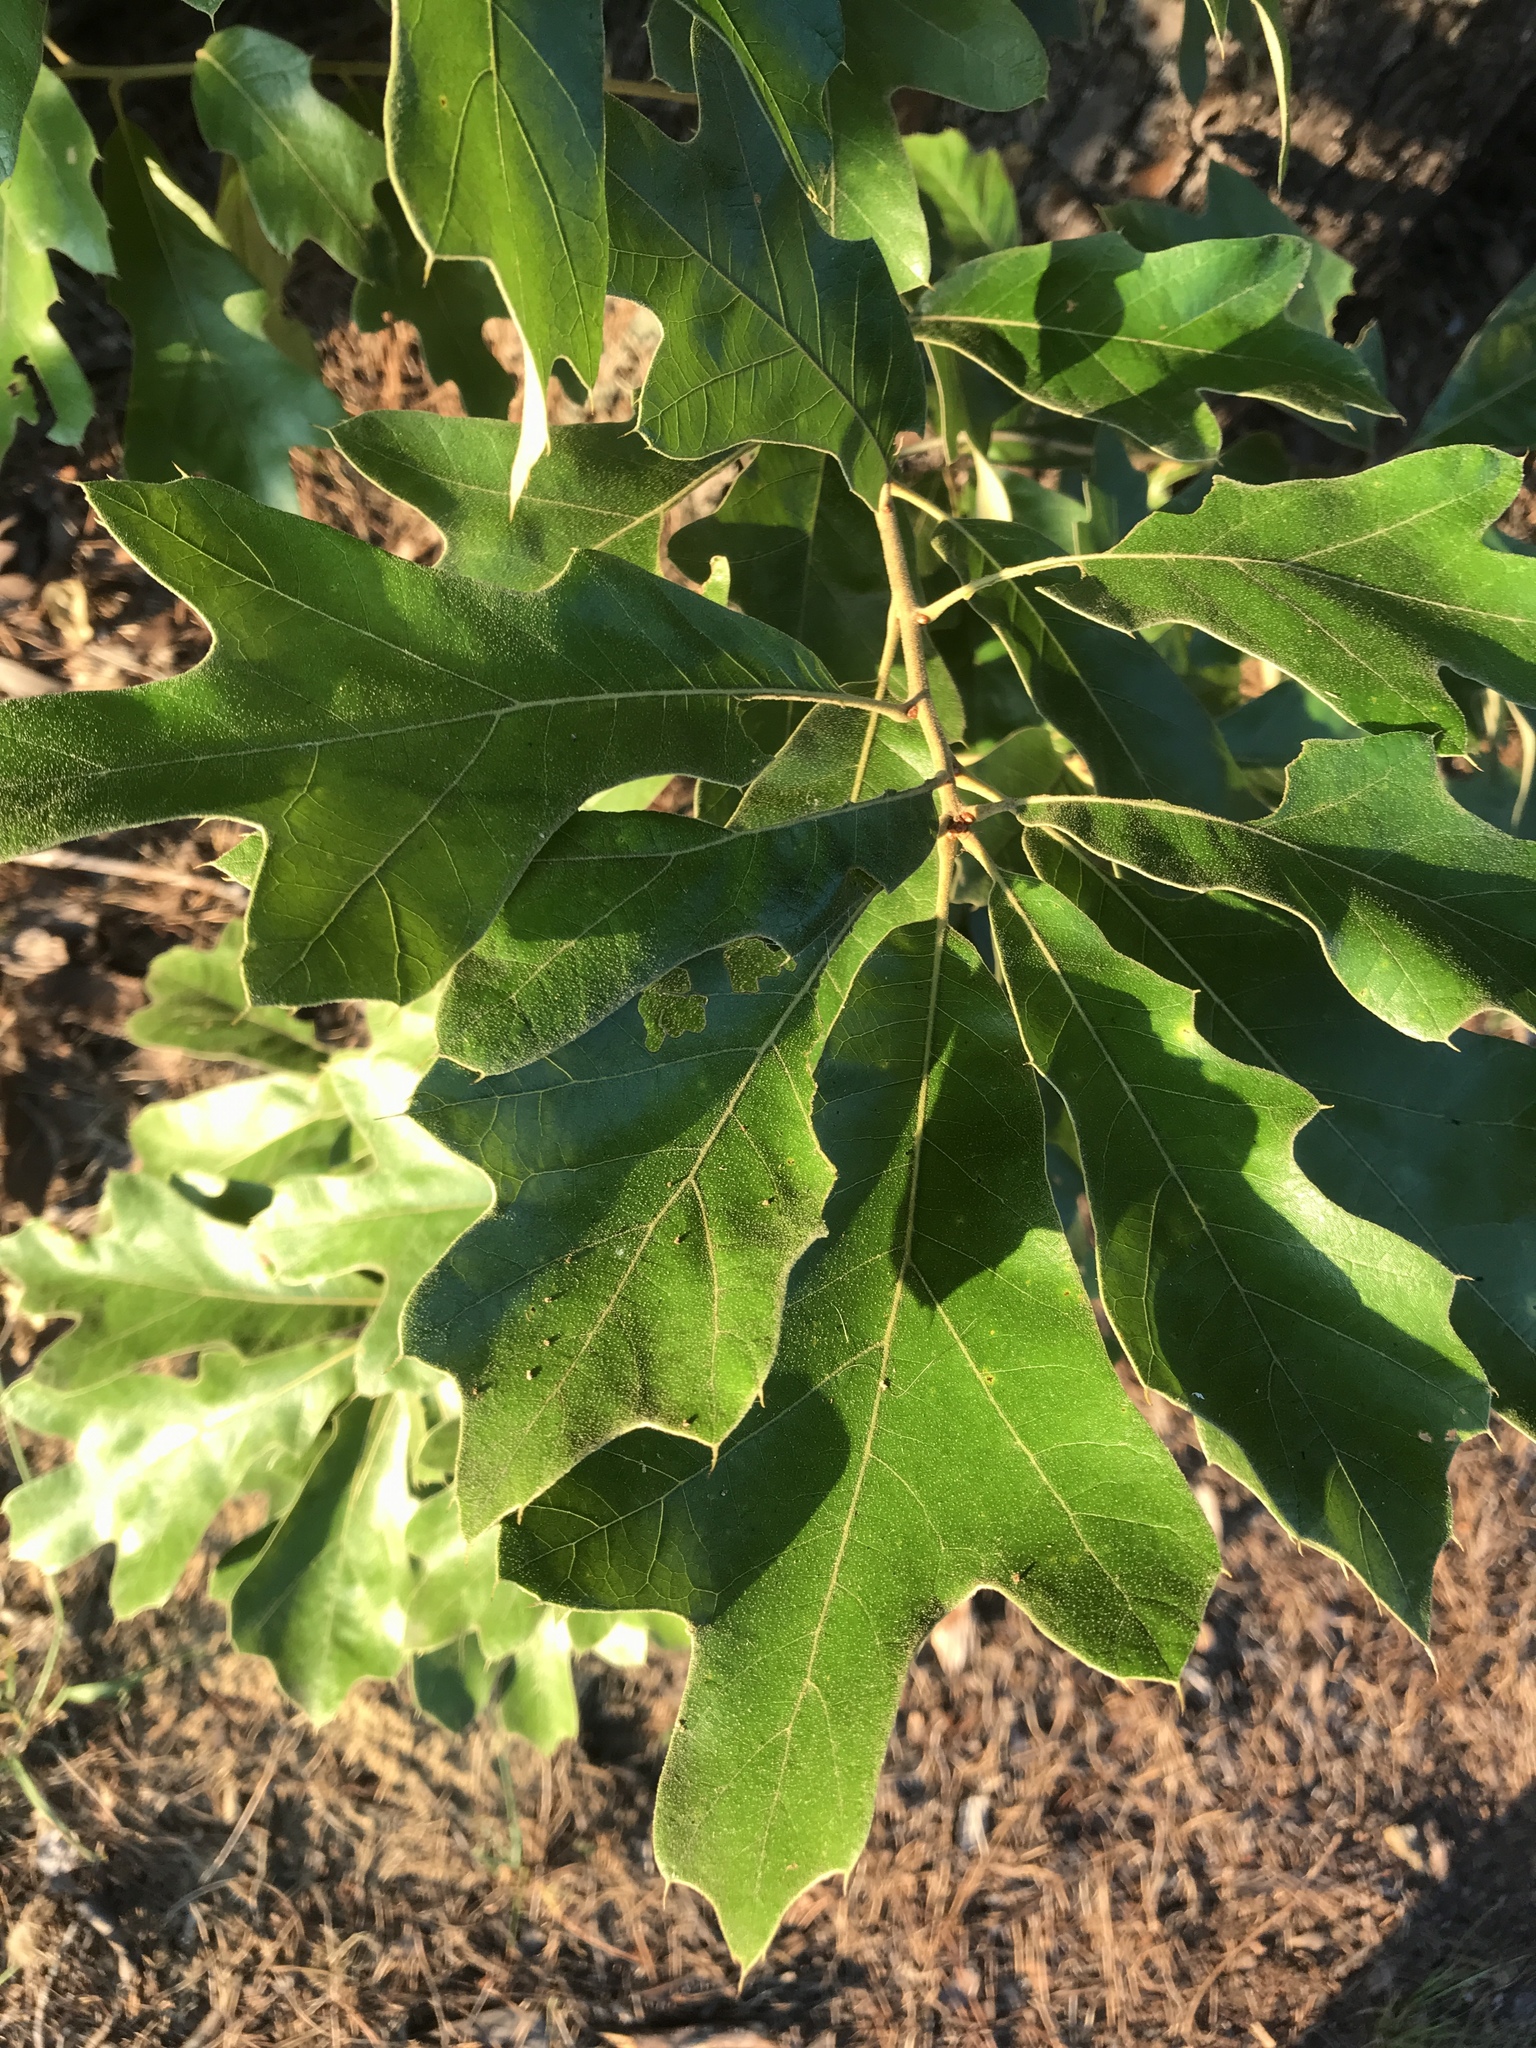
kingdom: Plantae
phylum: Tracheophyta
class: Magnoliopsida
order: Fagales
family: Fagaceae
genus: Quercus
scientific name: Quercus falcata
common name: Southern red oak
